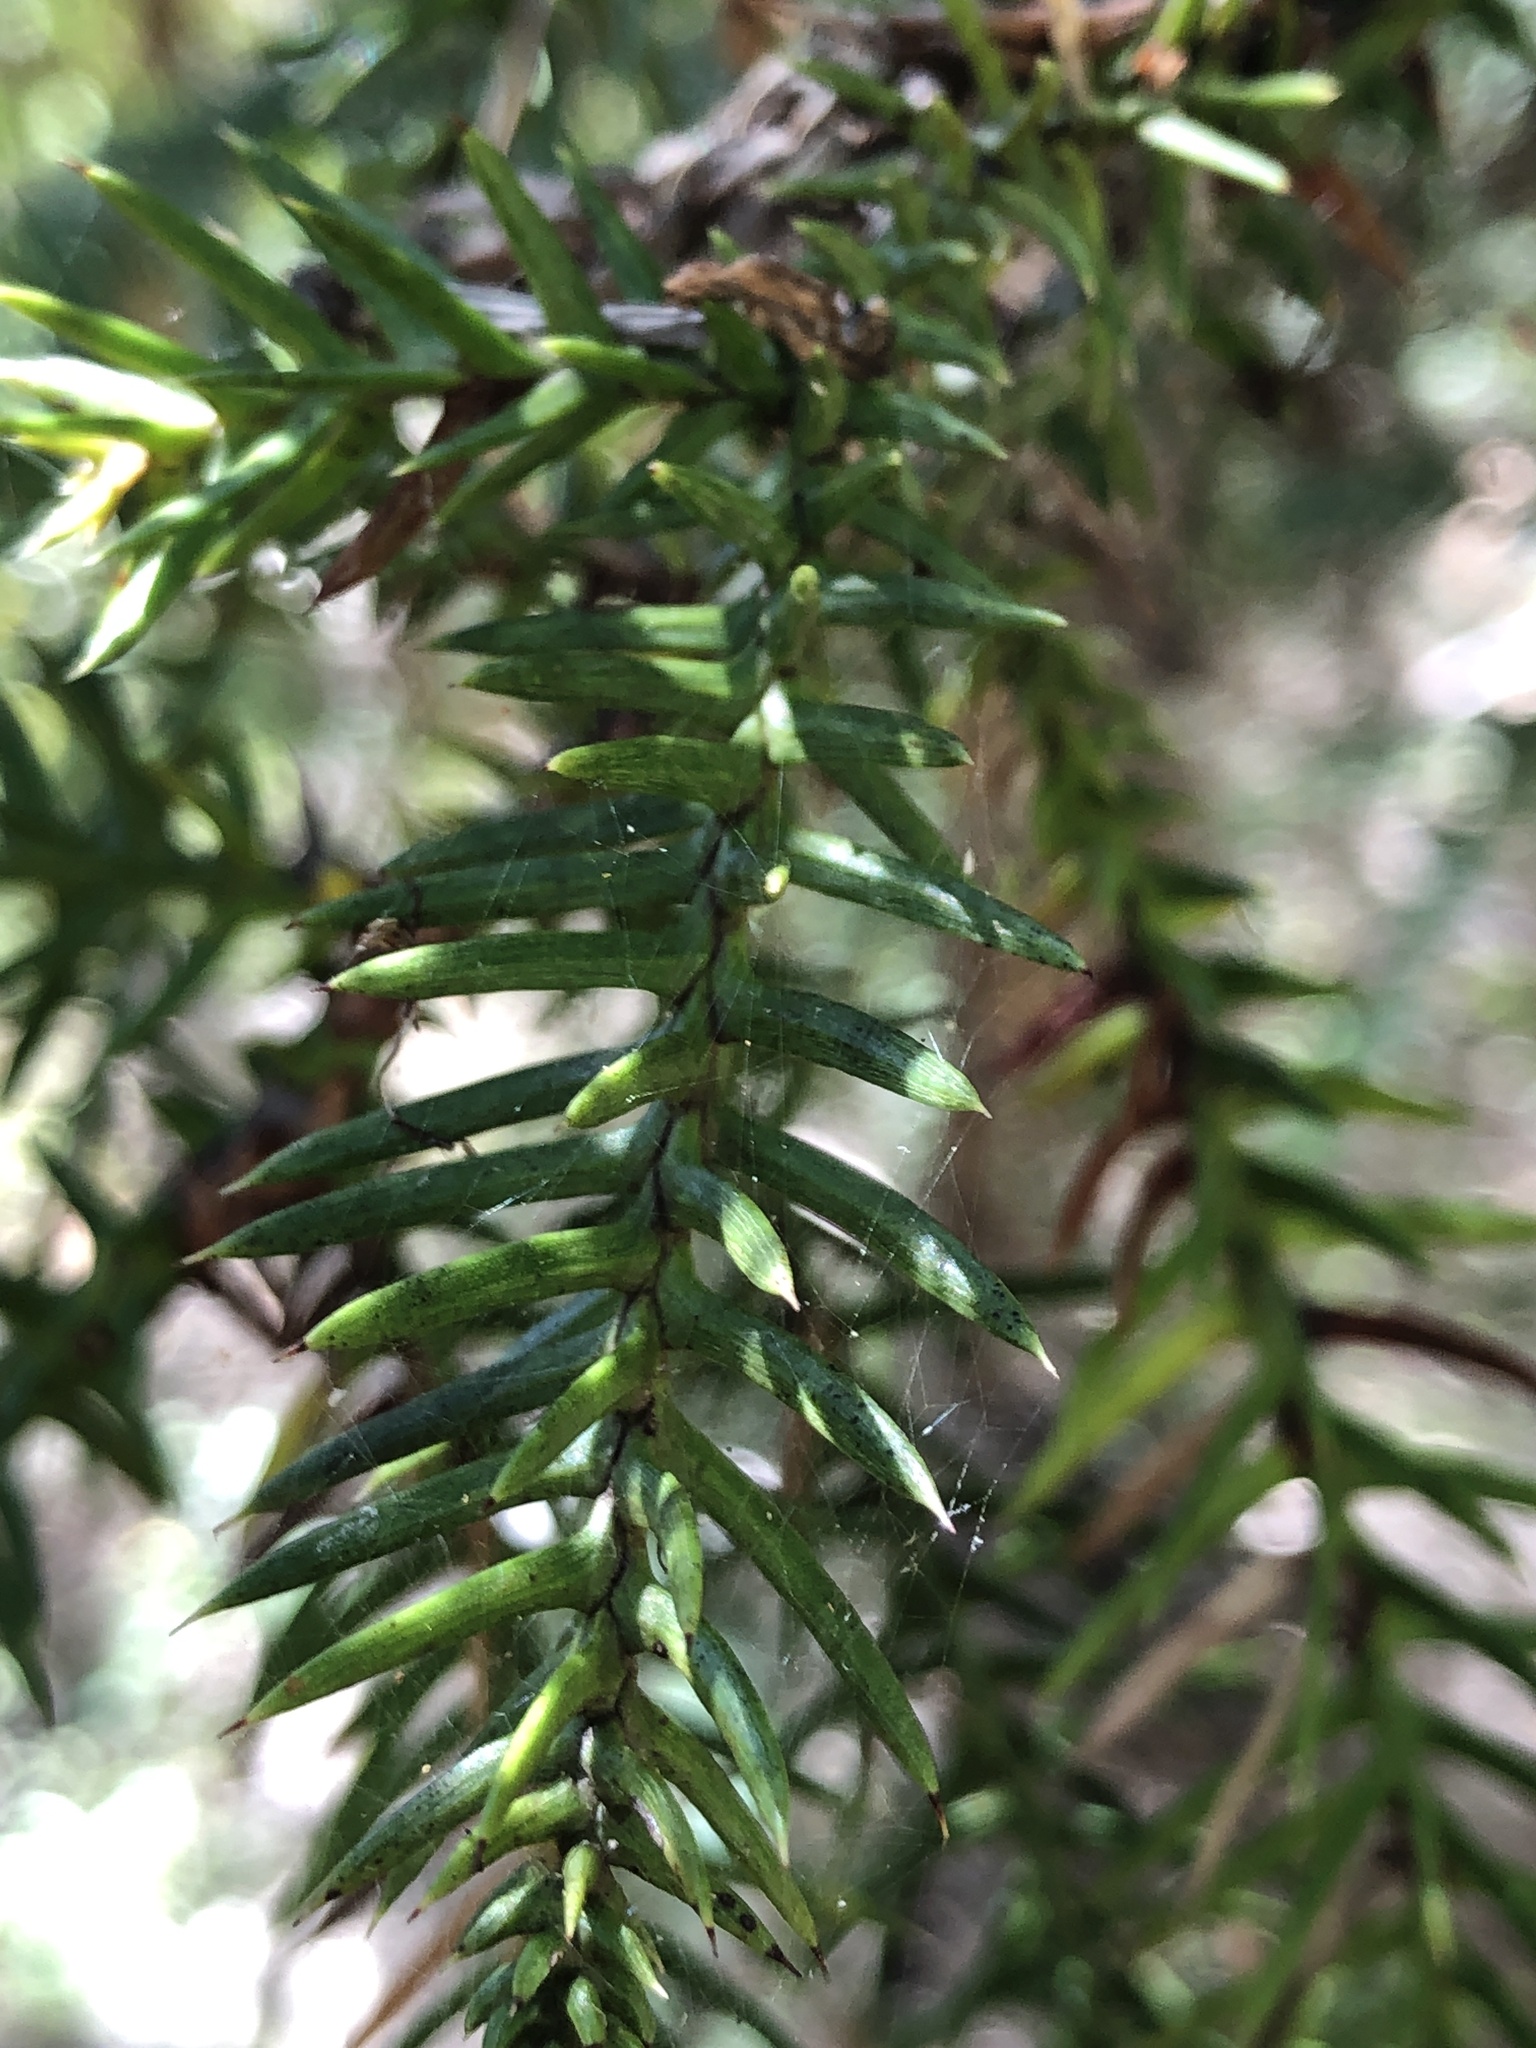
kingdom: Plantae
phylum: Tracheophyta
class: Pinopsida
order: Pinales
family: Araucariaceae
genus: Araucaria
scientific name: Araucaria cunninghamii
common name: Colonial pine
